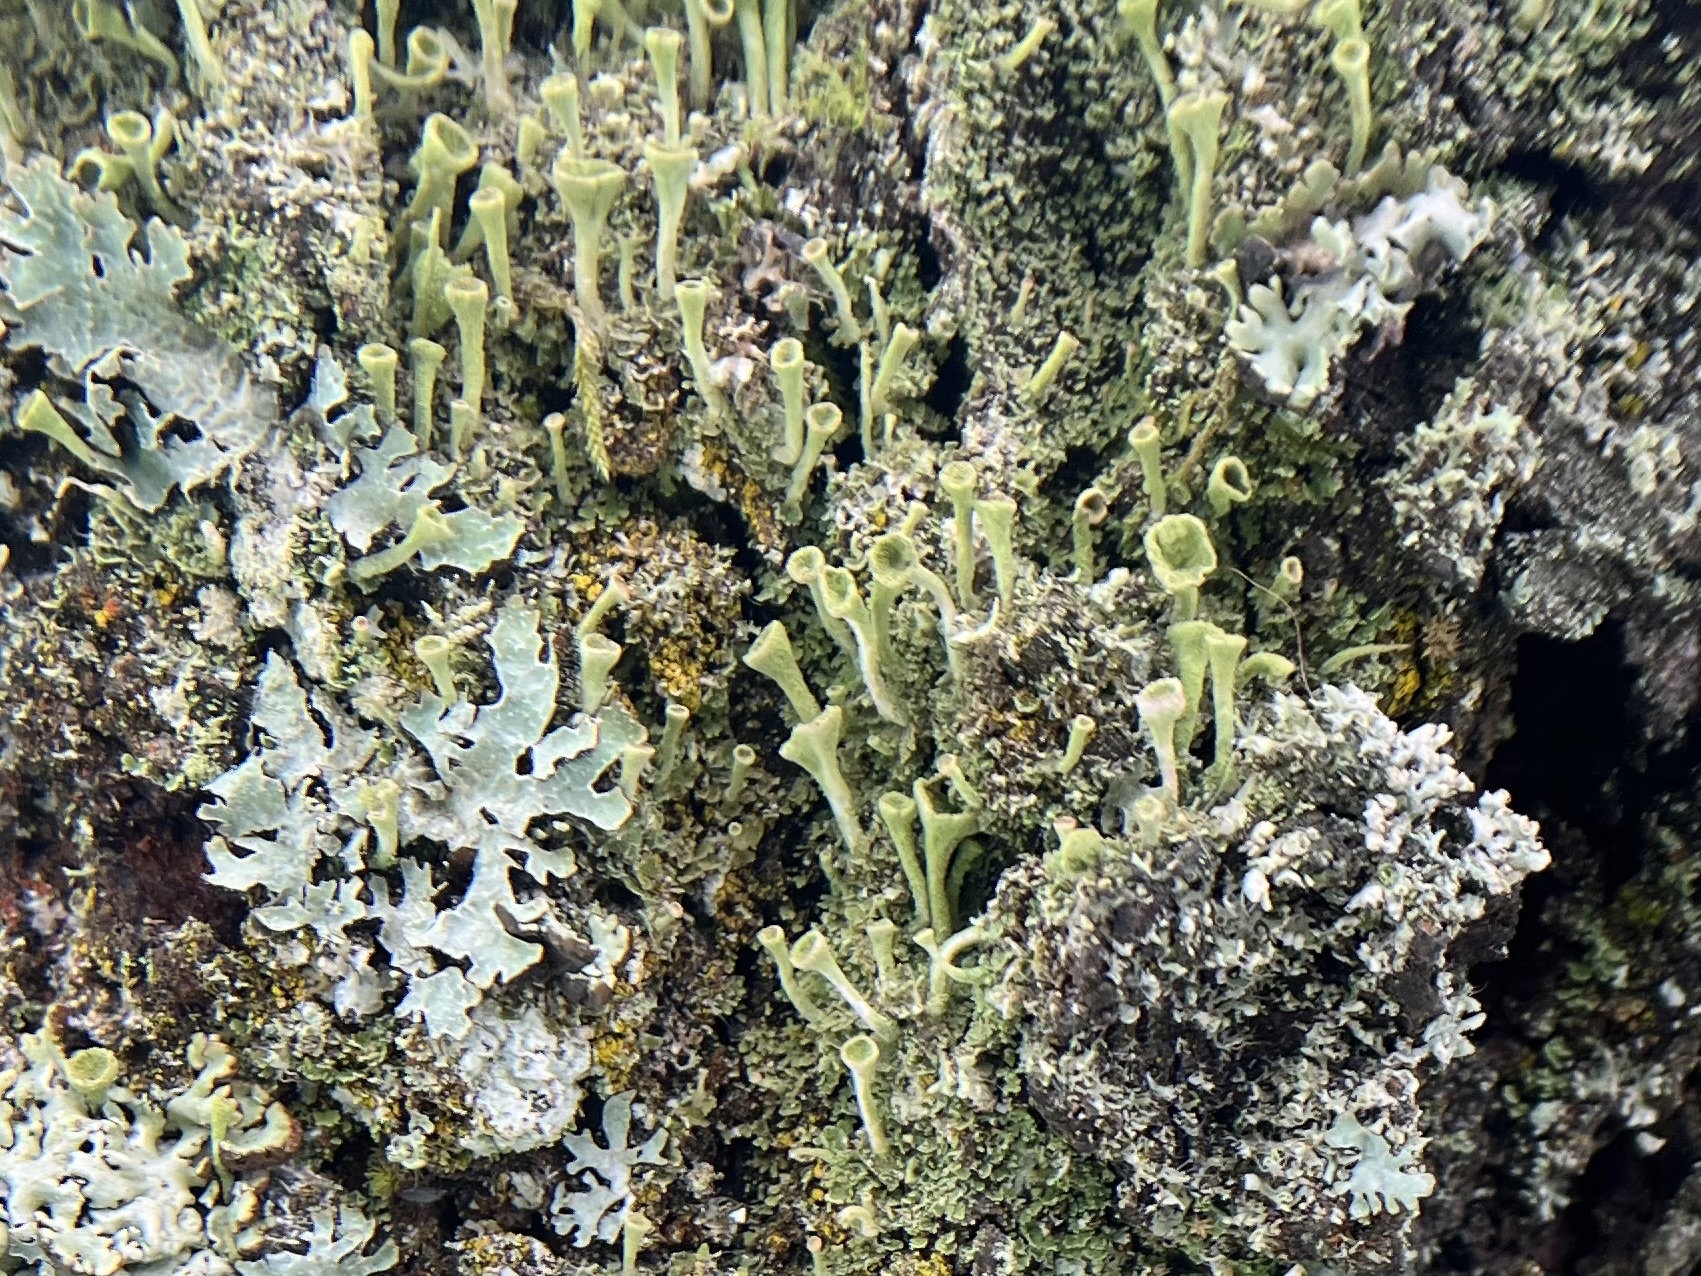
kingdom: Fungi
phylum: Ascomycota
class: Lecanoromycetes
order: Lecanorales
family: Cladoniaceae
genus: Cladonia
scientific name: Cladonia fimbriata
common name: Powdered trumpet lichen
